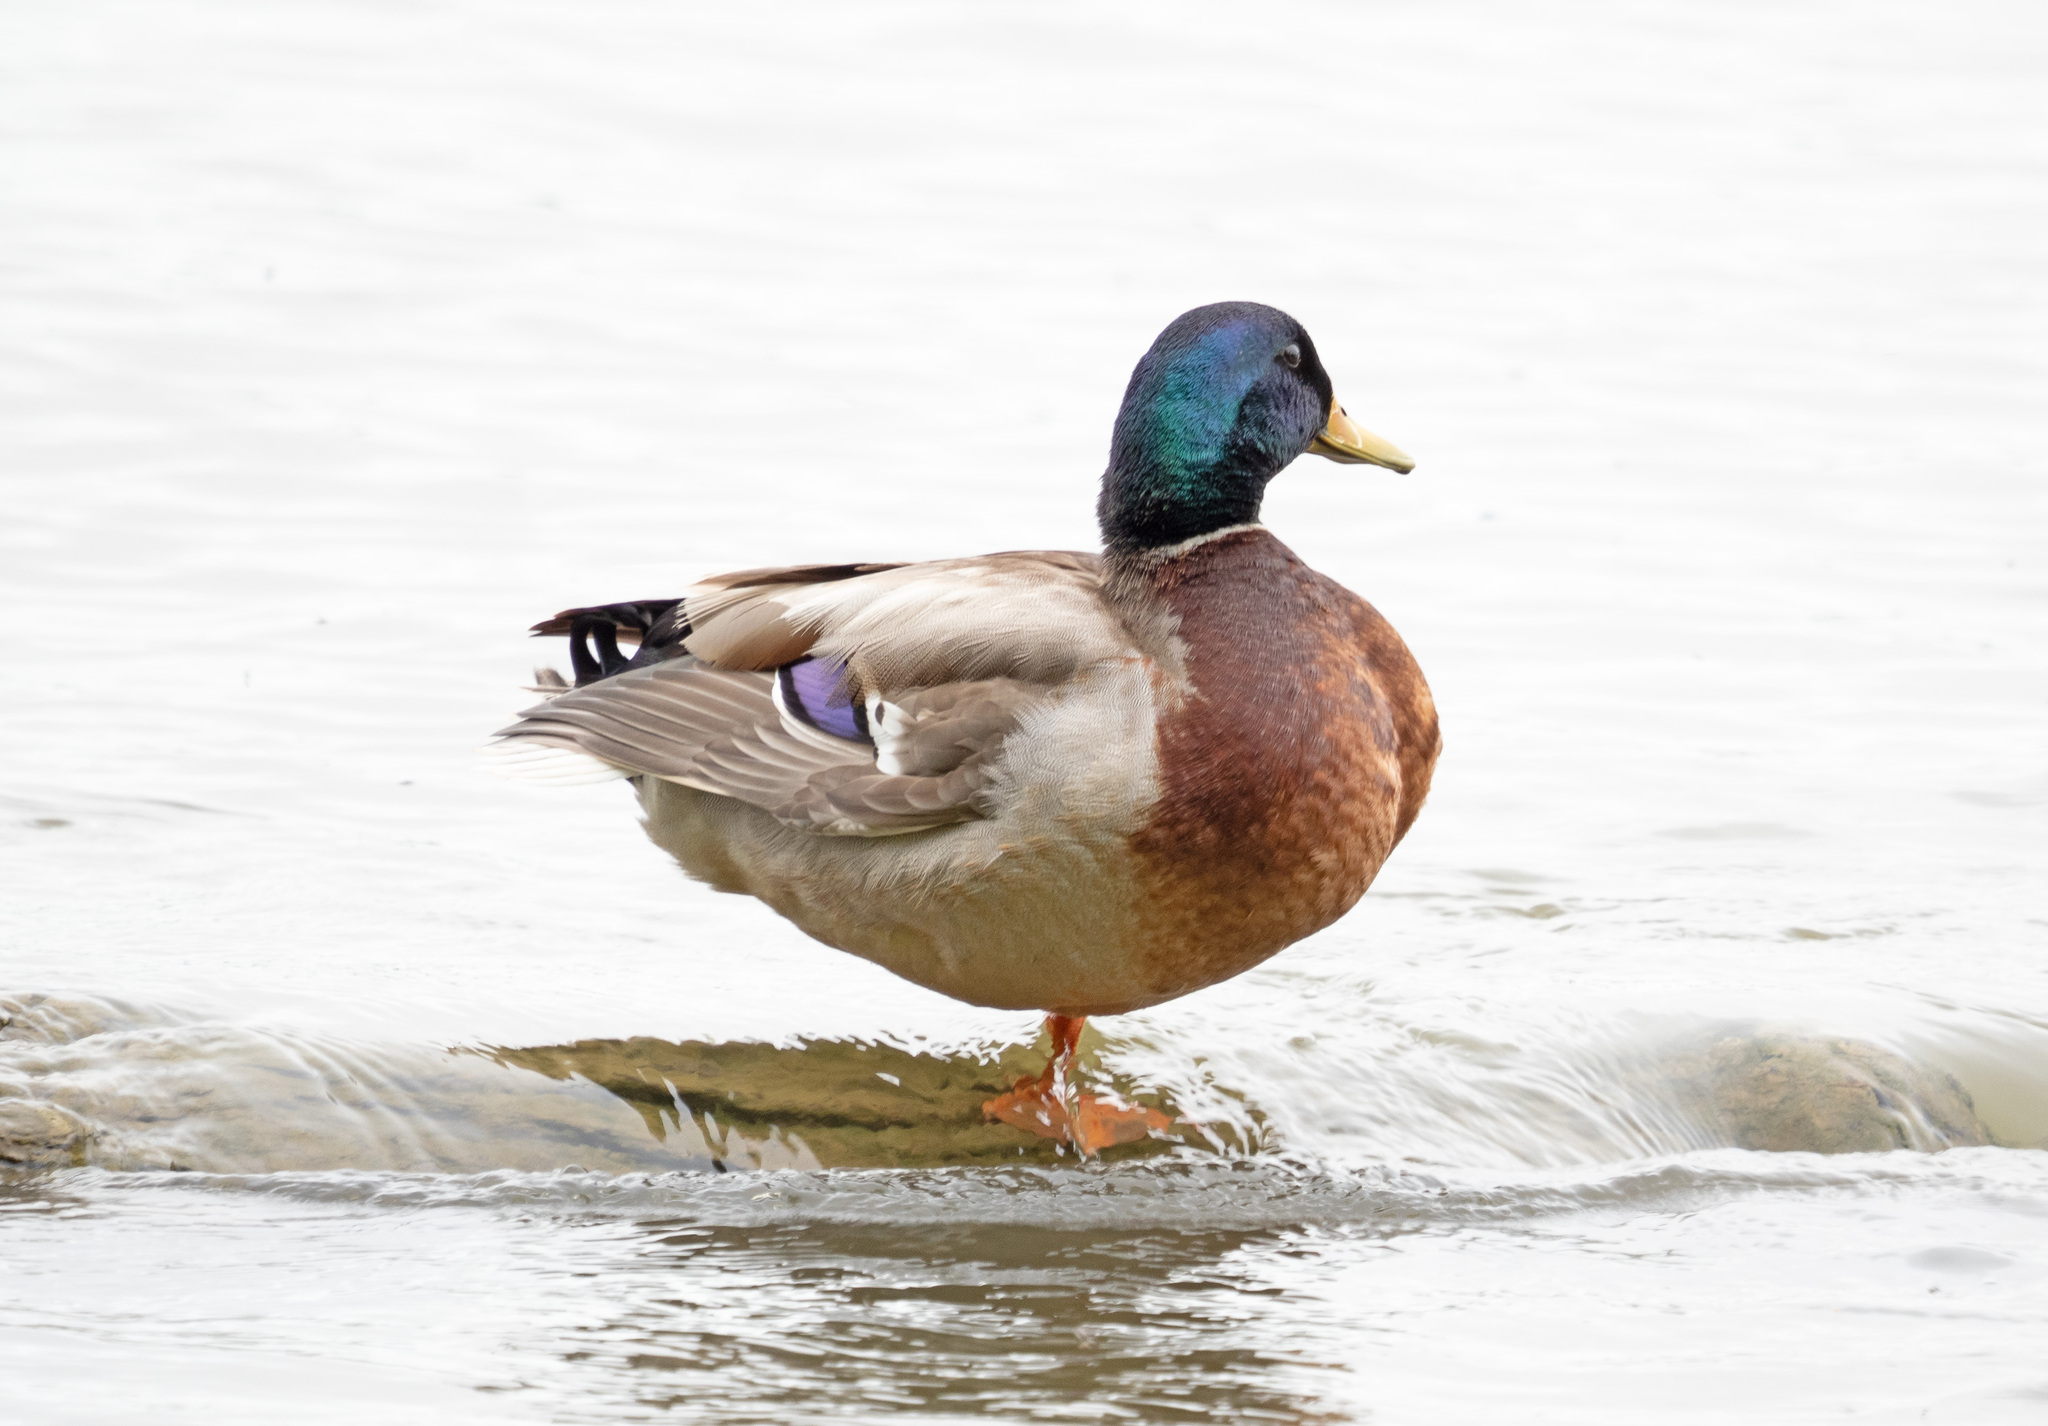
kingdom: Animalia
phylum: Chordata
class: Aves
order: Anseriformes
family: Anatidae
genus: Anas
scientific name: Anas platyrhynchos
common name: Mallard
